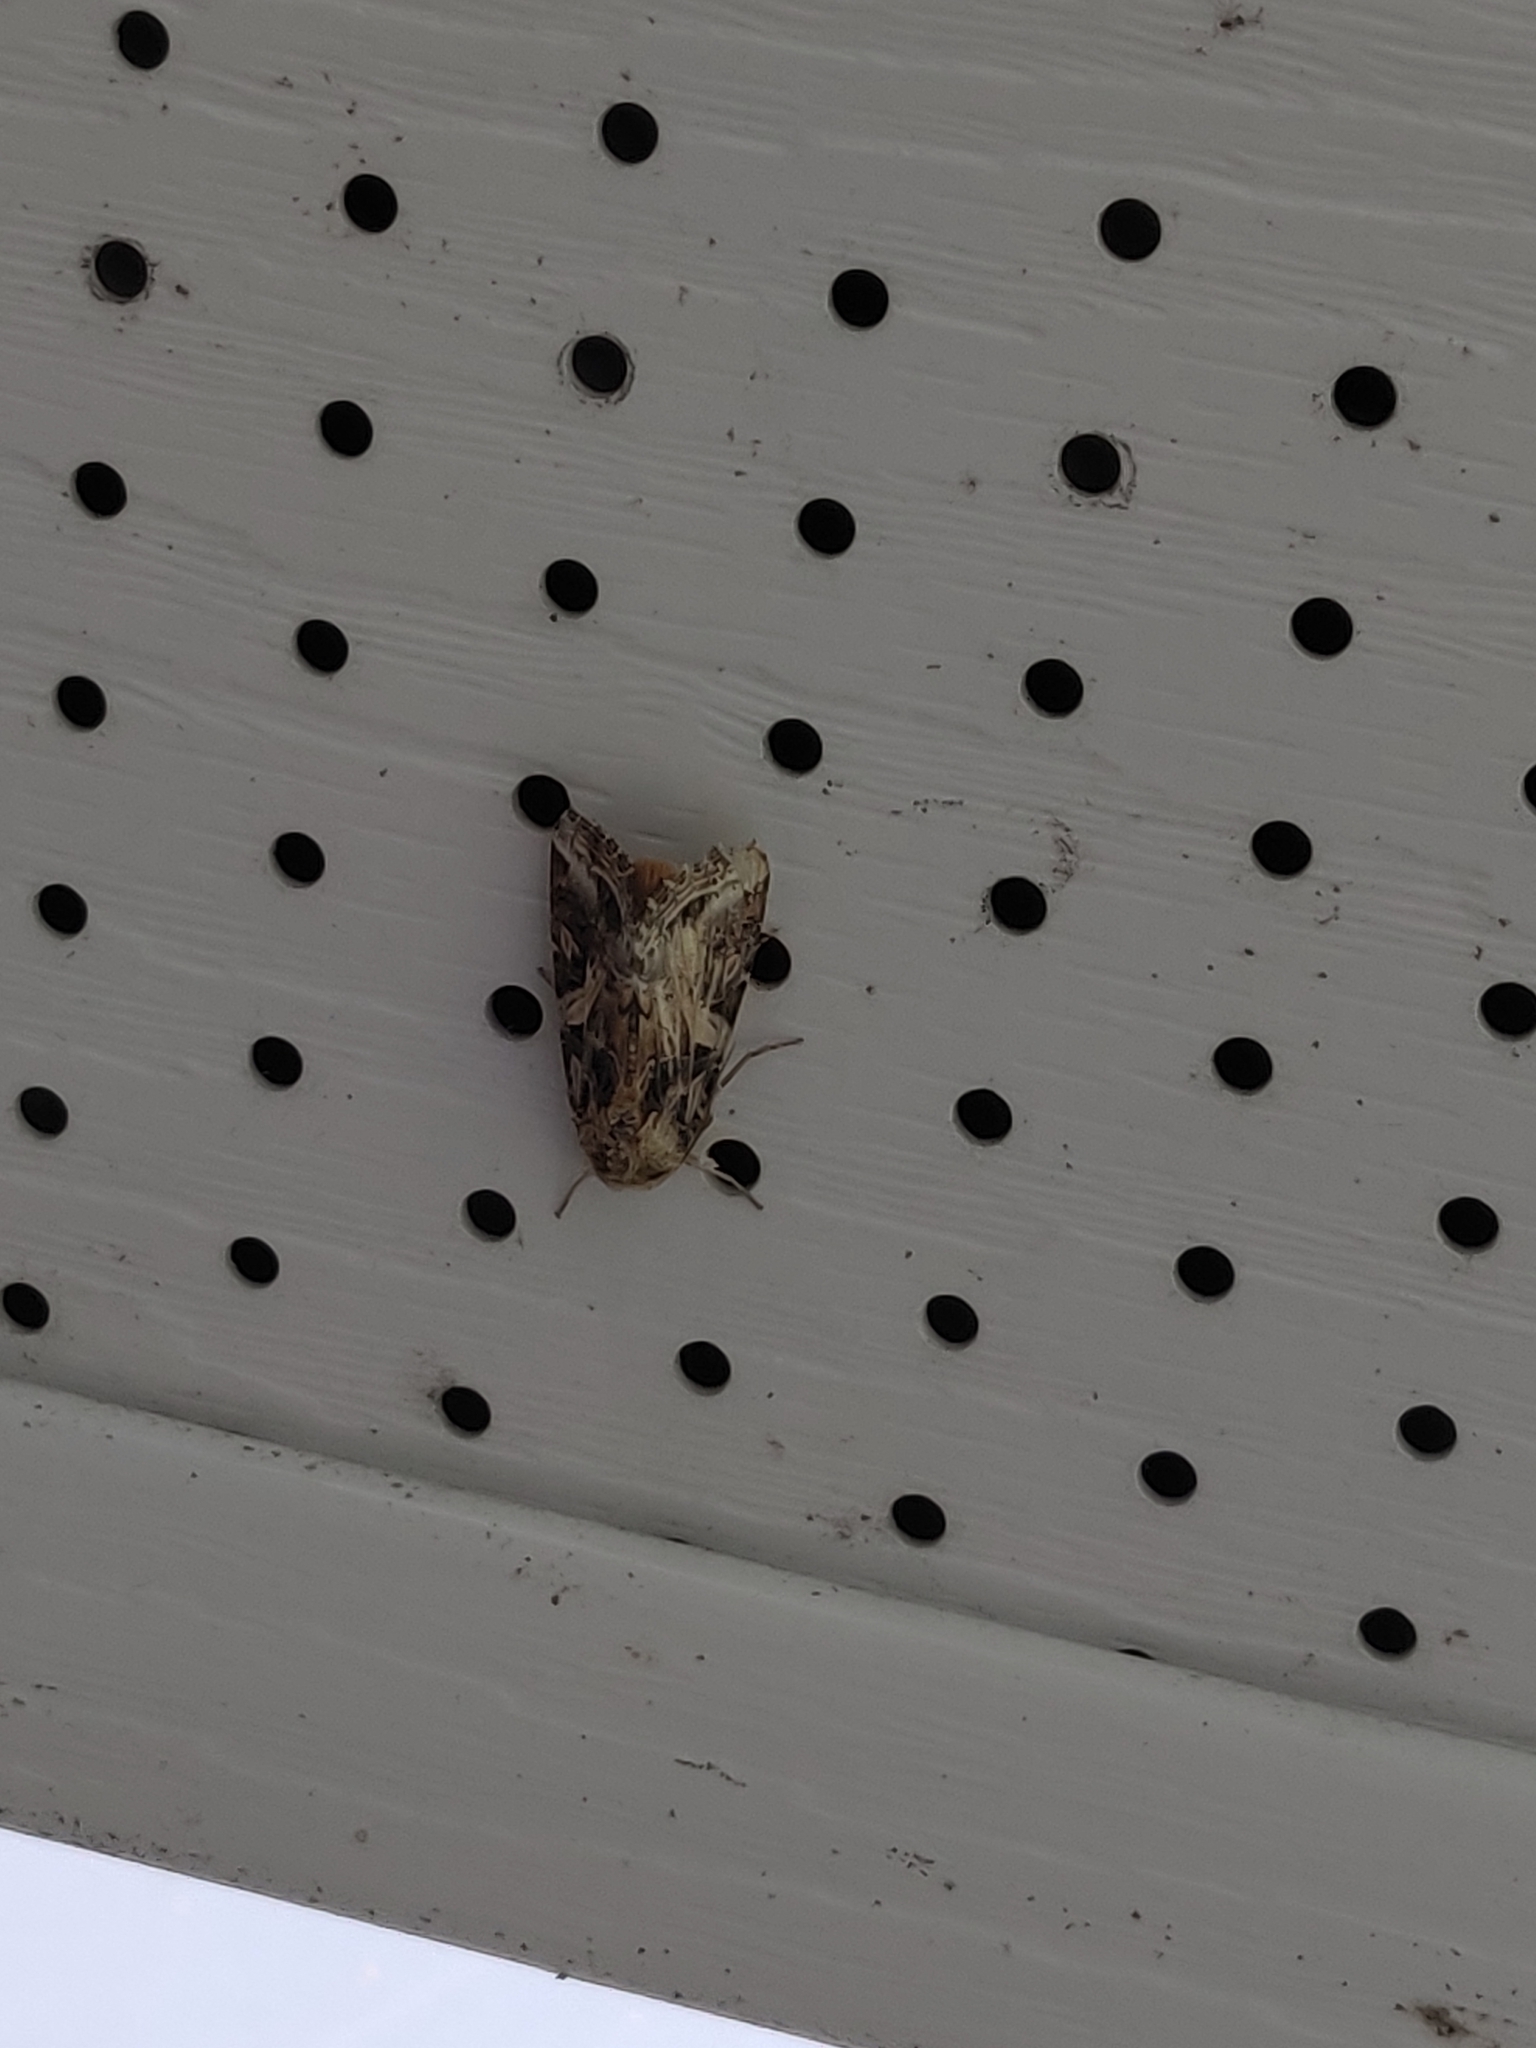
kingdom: Animalia
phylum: Arthropoda
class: Insecta
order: Lepidoptera
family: Noctuidae
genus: Spodoptera
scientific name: Spodoptera
